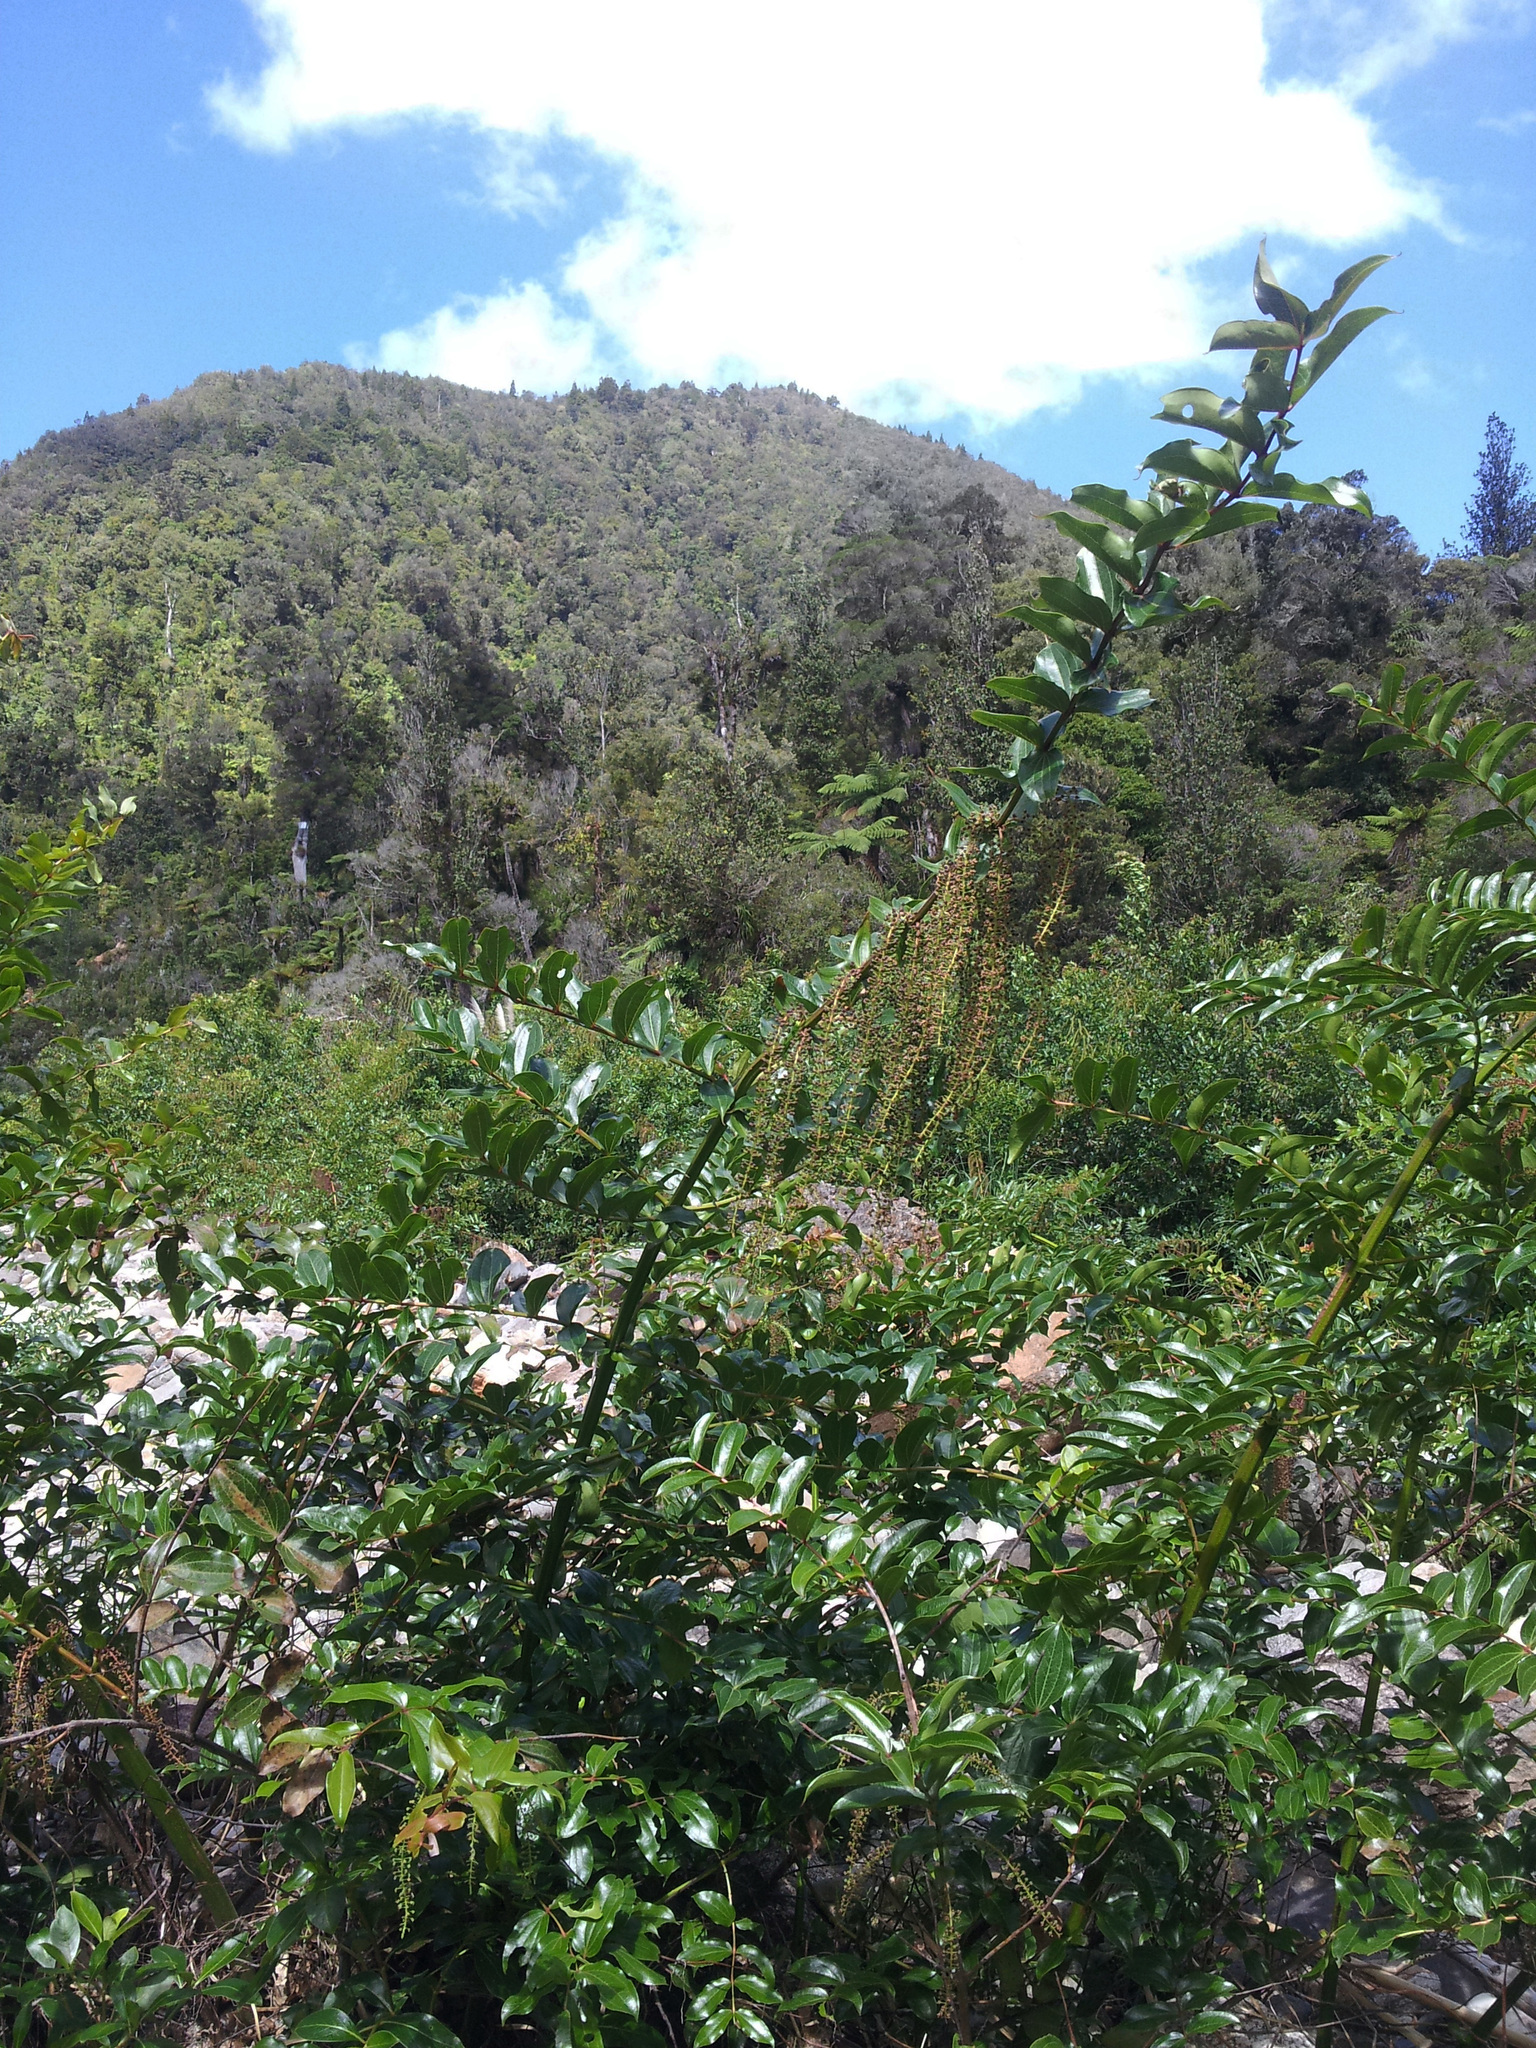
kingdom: Plantae
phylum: Tracheophyta
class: Magnoliopsida
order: Cucurbitales
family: Coriariaceae
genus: Coriaria
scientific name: Coriaria arborea
